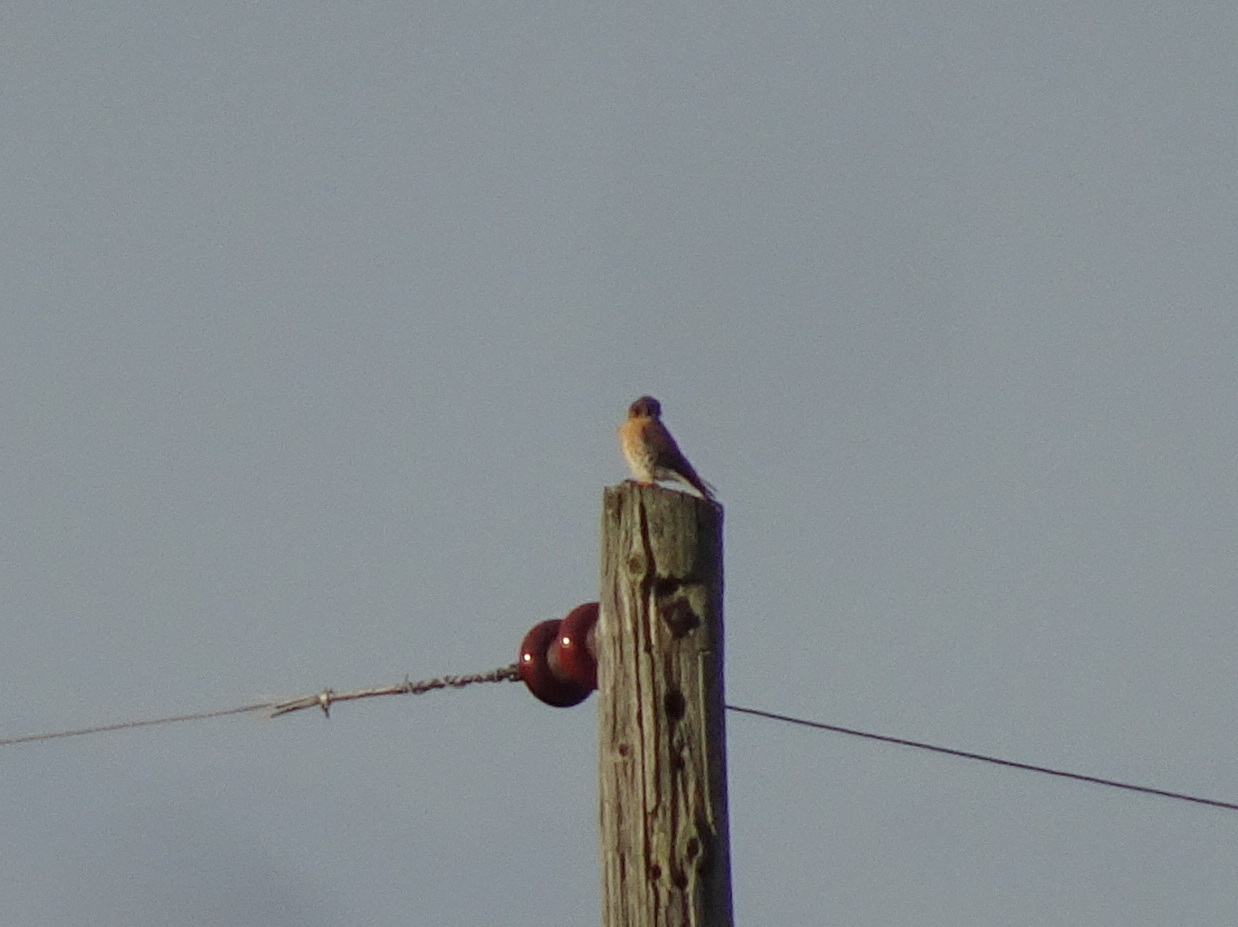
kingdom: Animalia
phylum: Chordata
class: Aves
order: Falconiformes
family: Falconidae
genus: Falco
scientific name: Falco sparverius
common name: American kestrel
